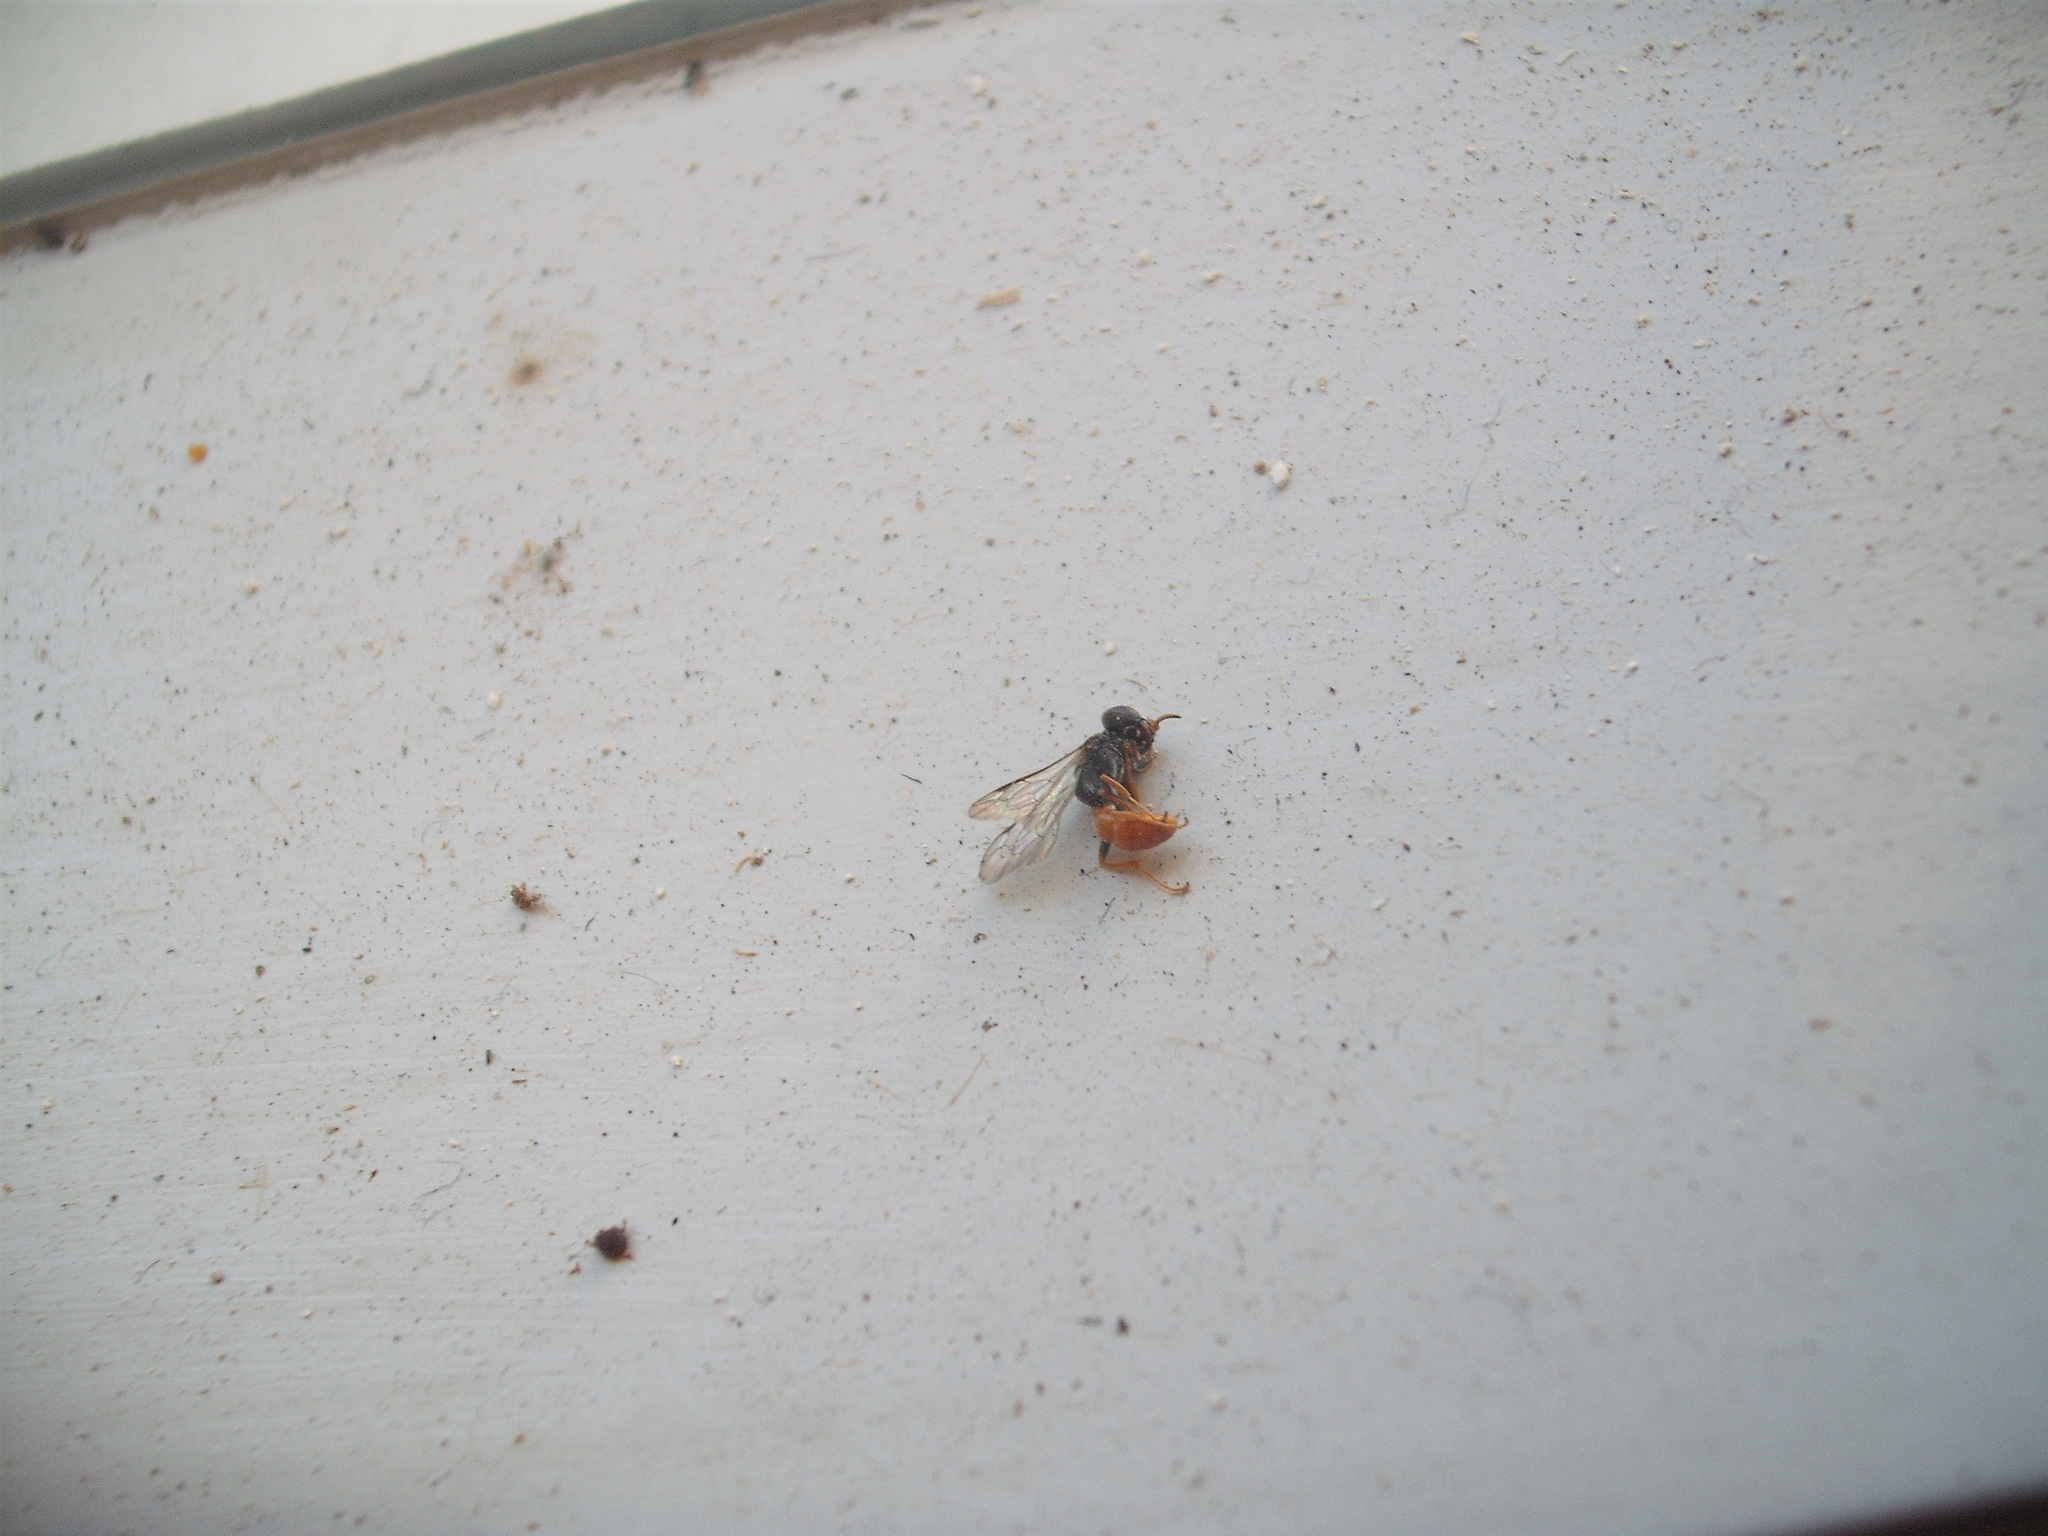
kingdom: Animalia
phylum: Arthropoda
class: Insecta
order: Hymenoptera
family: Crabronidae
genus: Pison
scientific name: Pison peletieri
